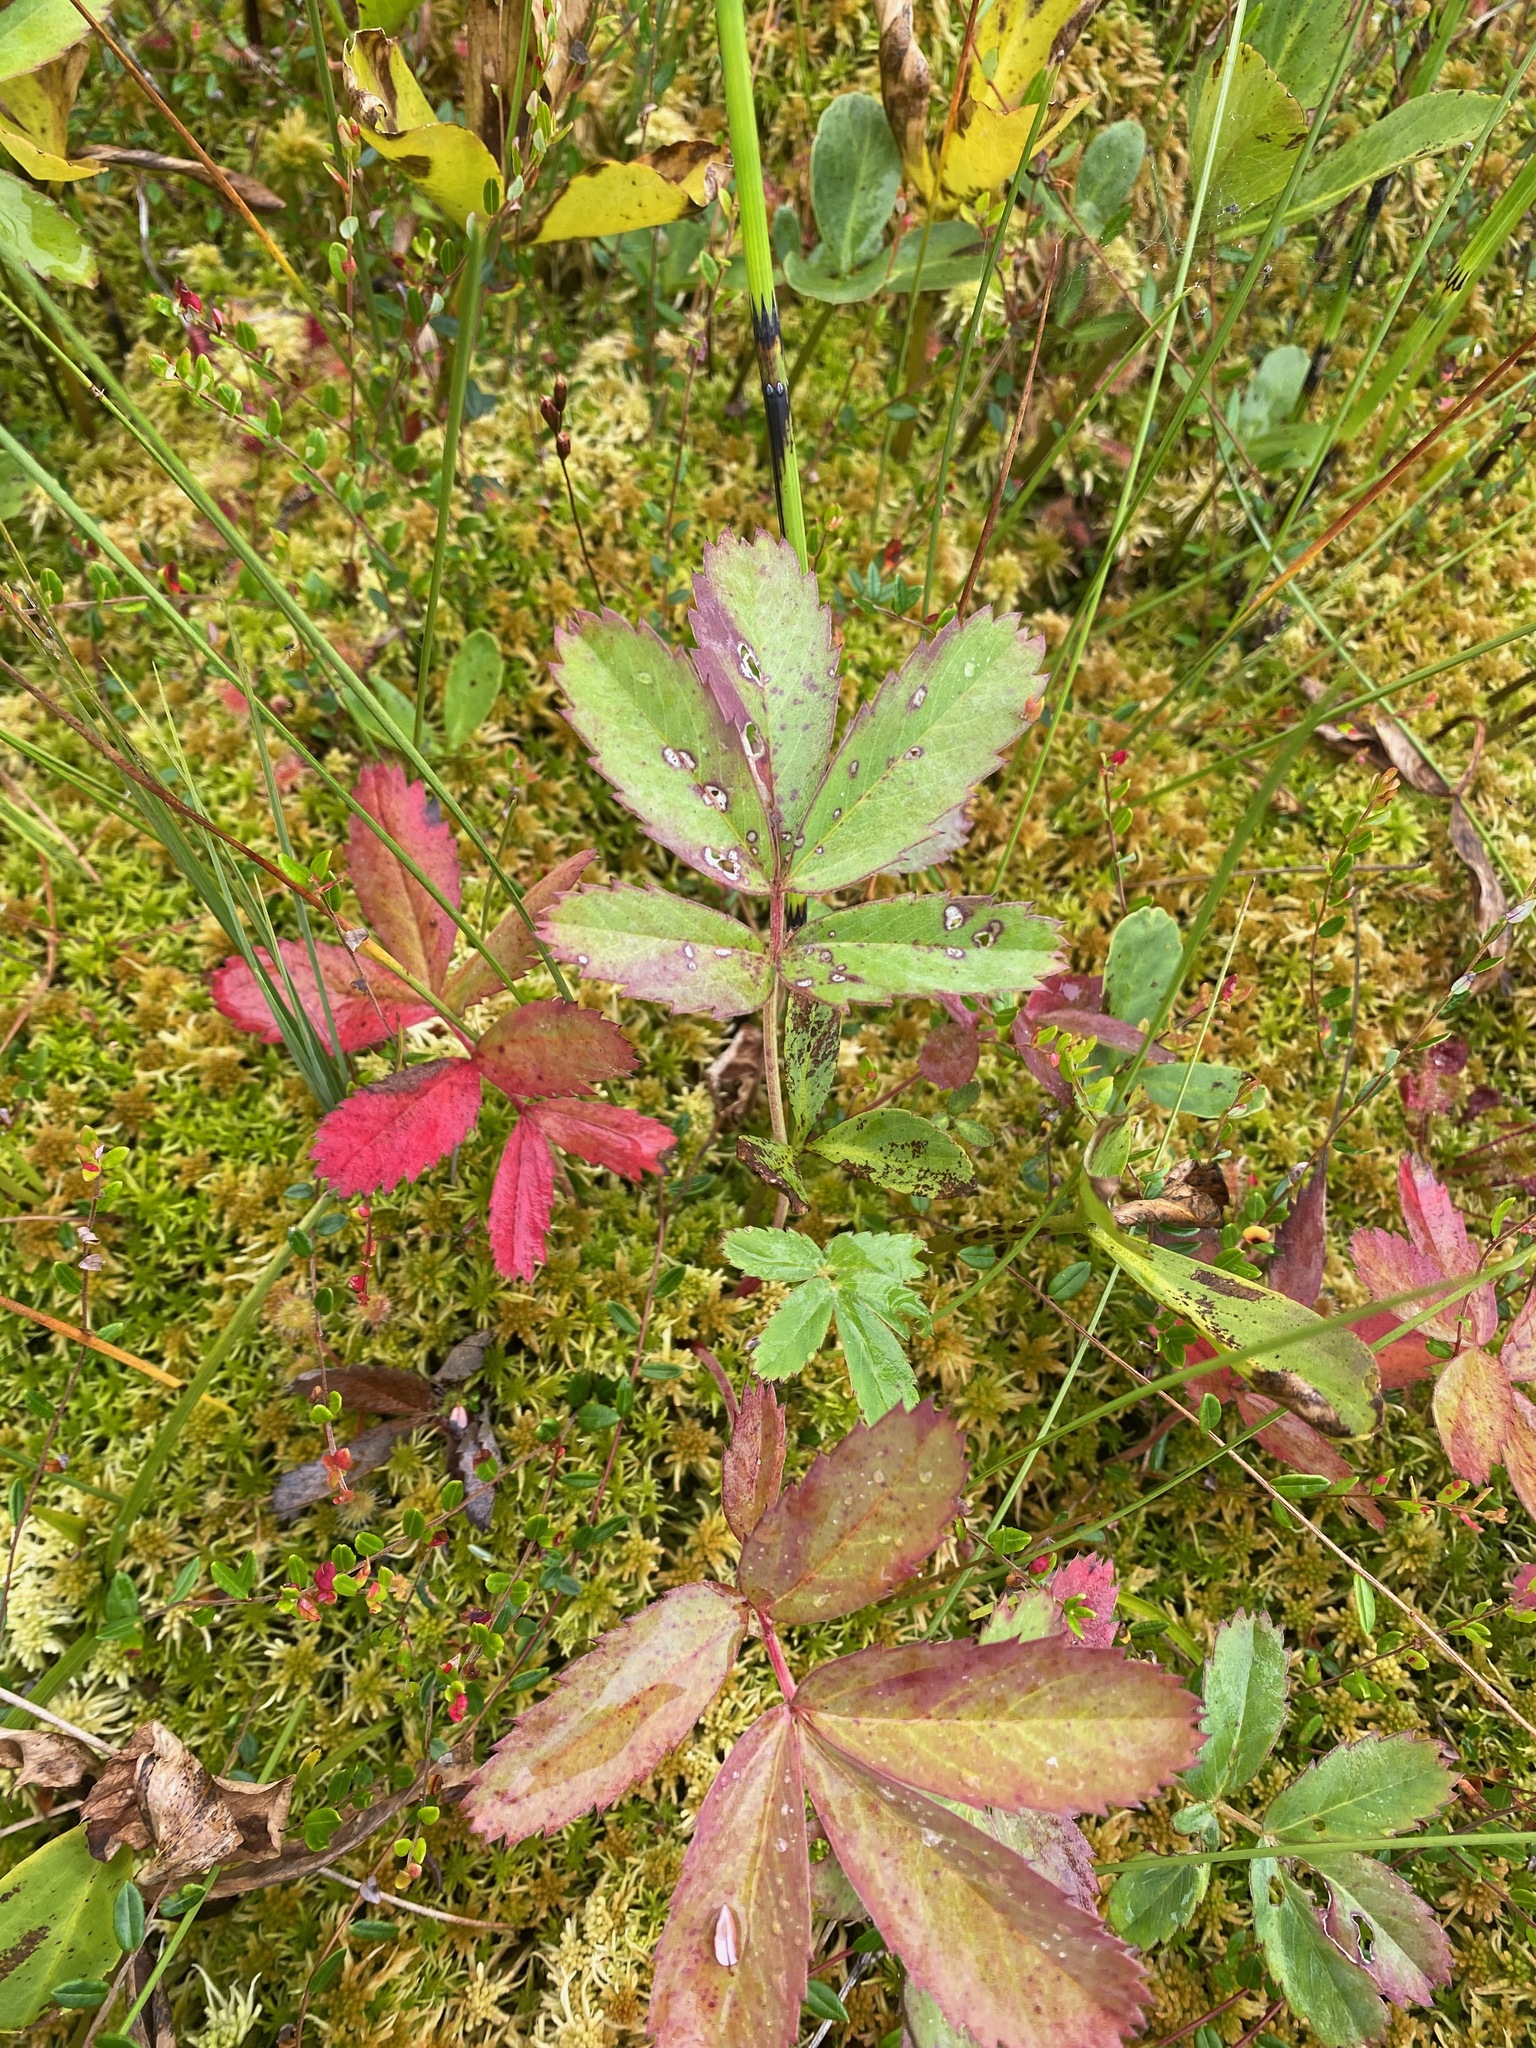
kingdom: Plantae
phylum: Tracheophyta
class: Magnoliopsida
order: Rosales
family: Rosaceae
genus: Comarum
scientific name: Comarum palustre
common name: Marsh cinquefoil
